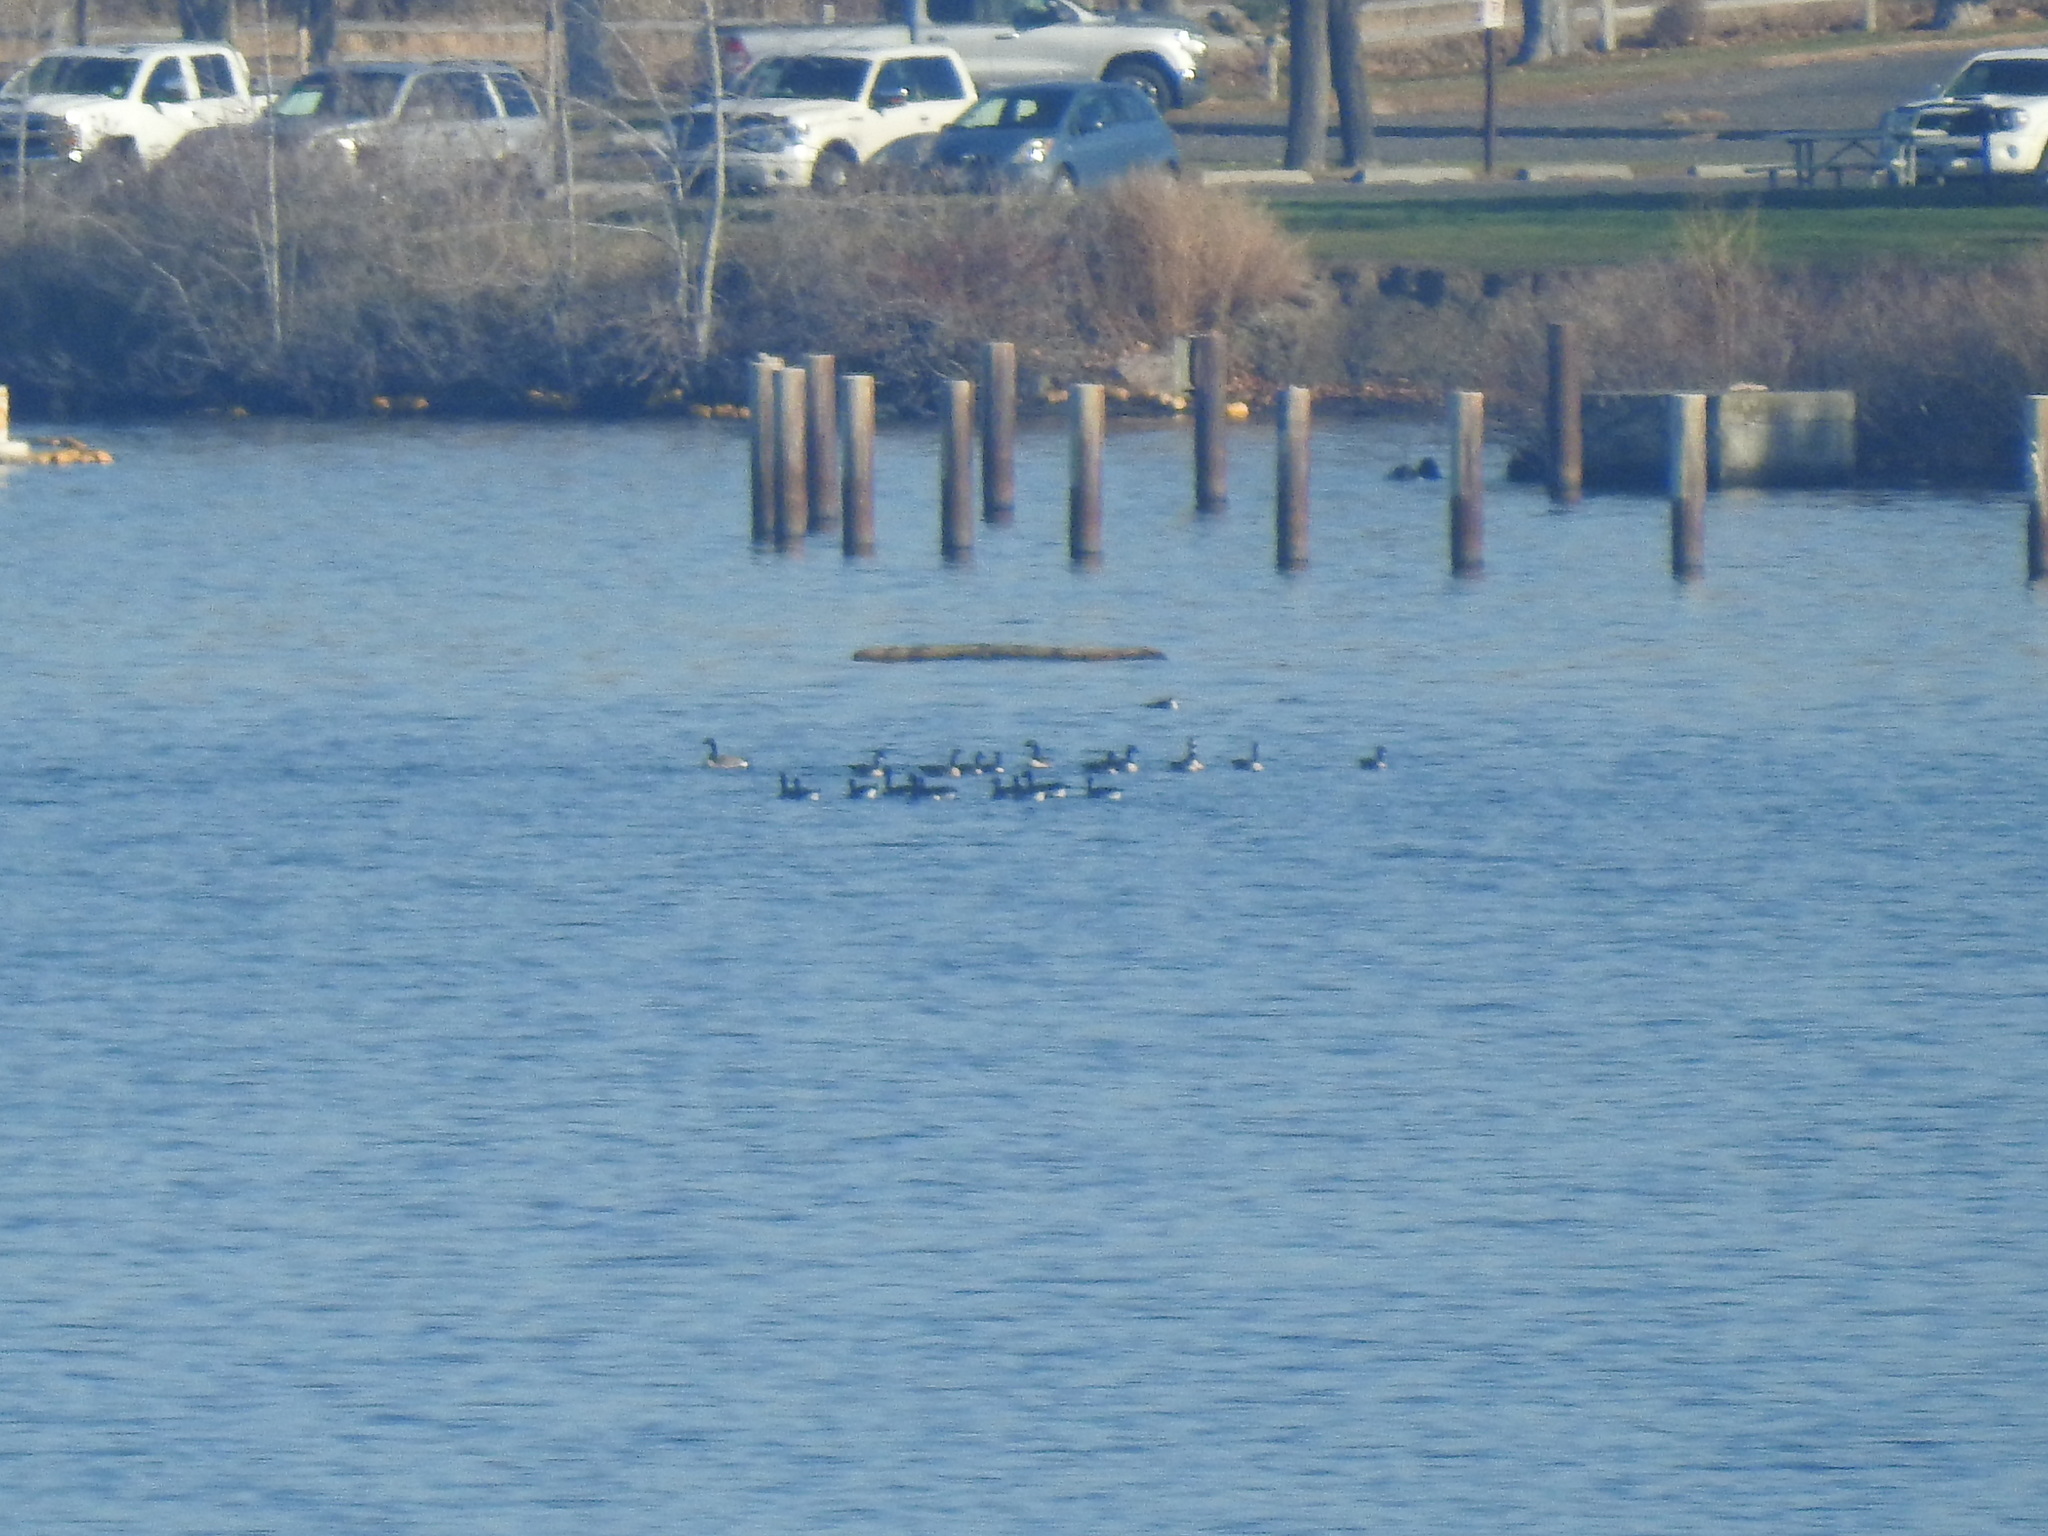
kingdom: Animalia
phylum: Chordata
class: Aves
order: Anseriformes
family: Anatidae
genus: Branta
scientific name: Branta canadensis
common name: Canada goose
